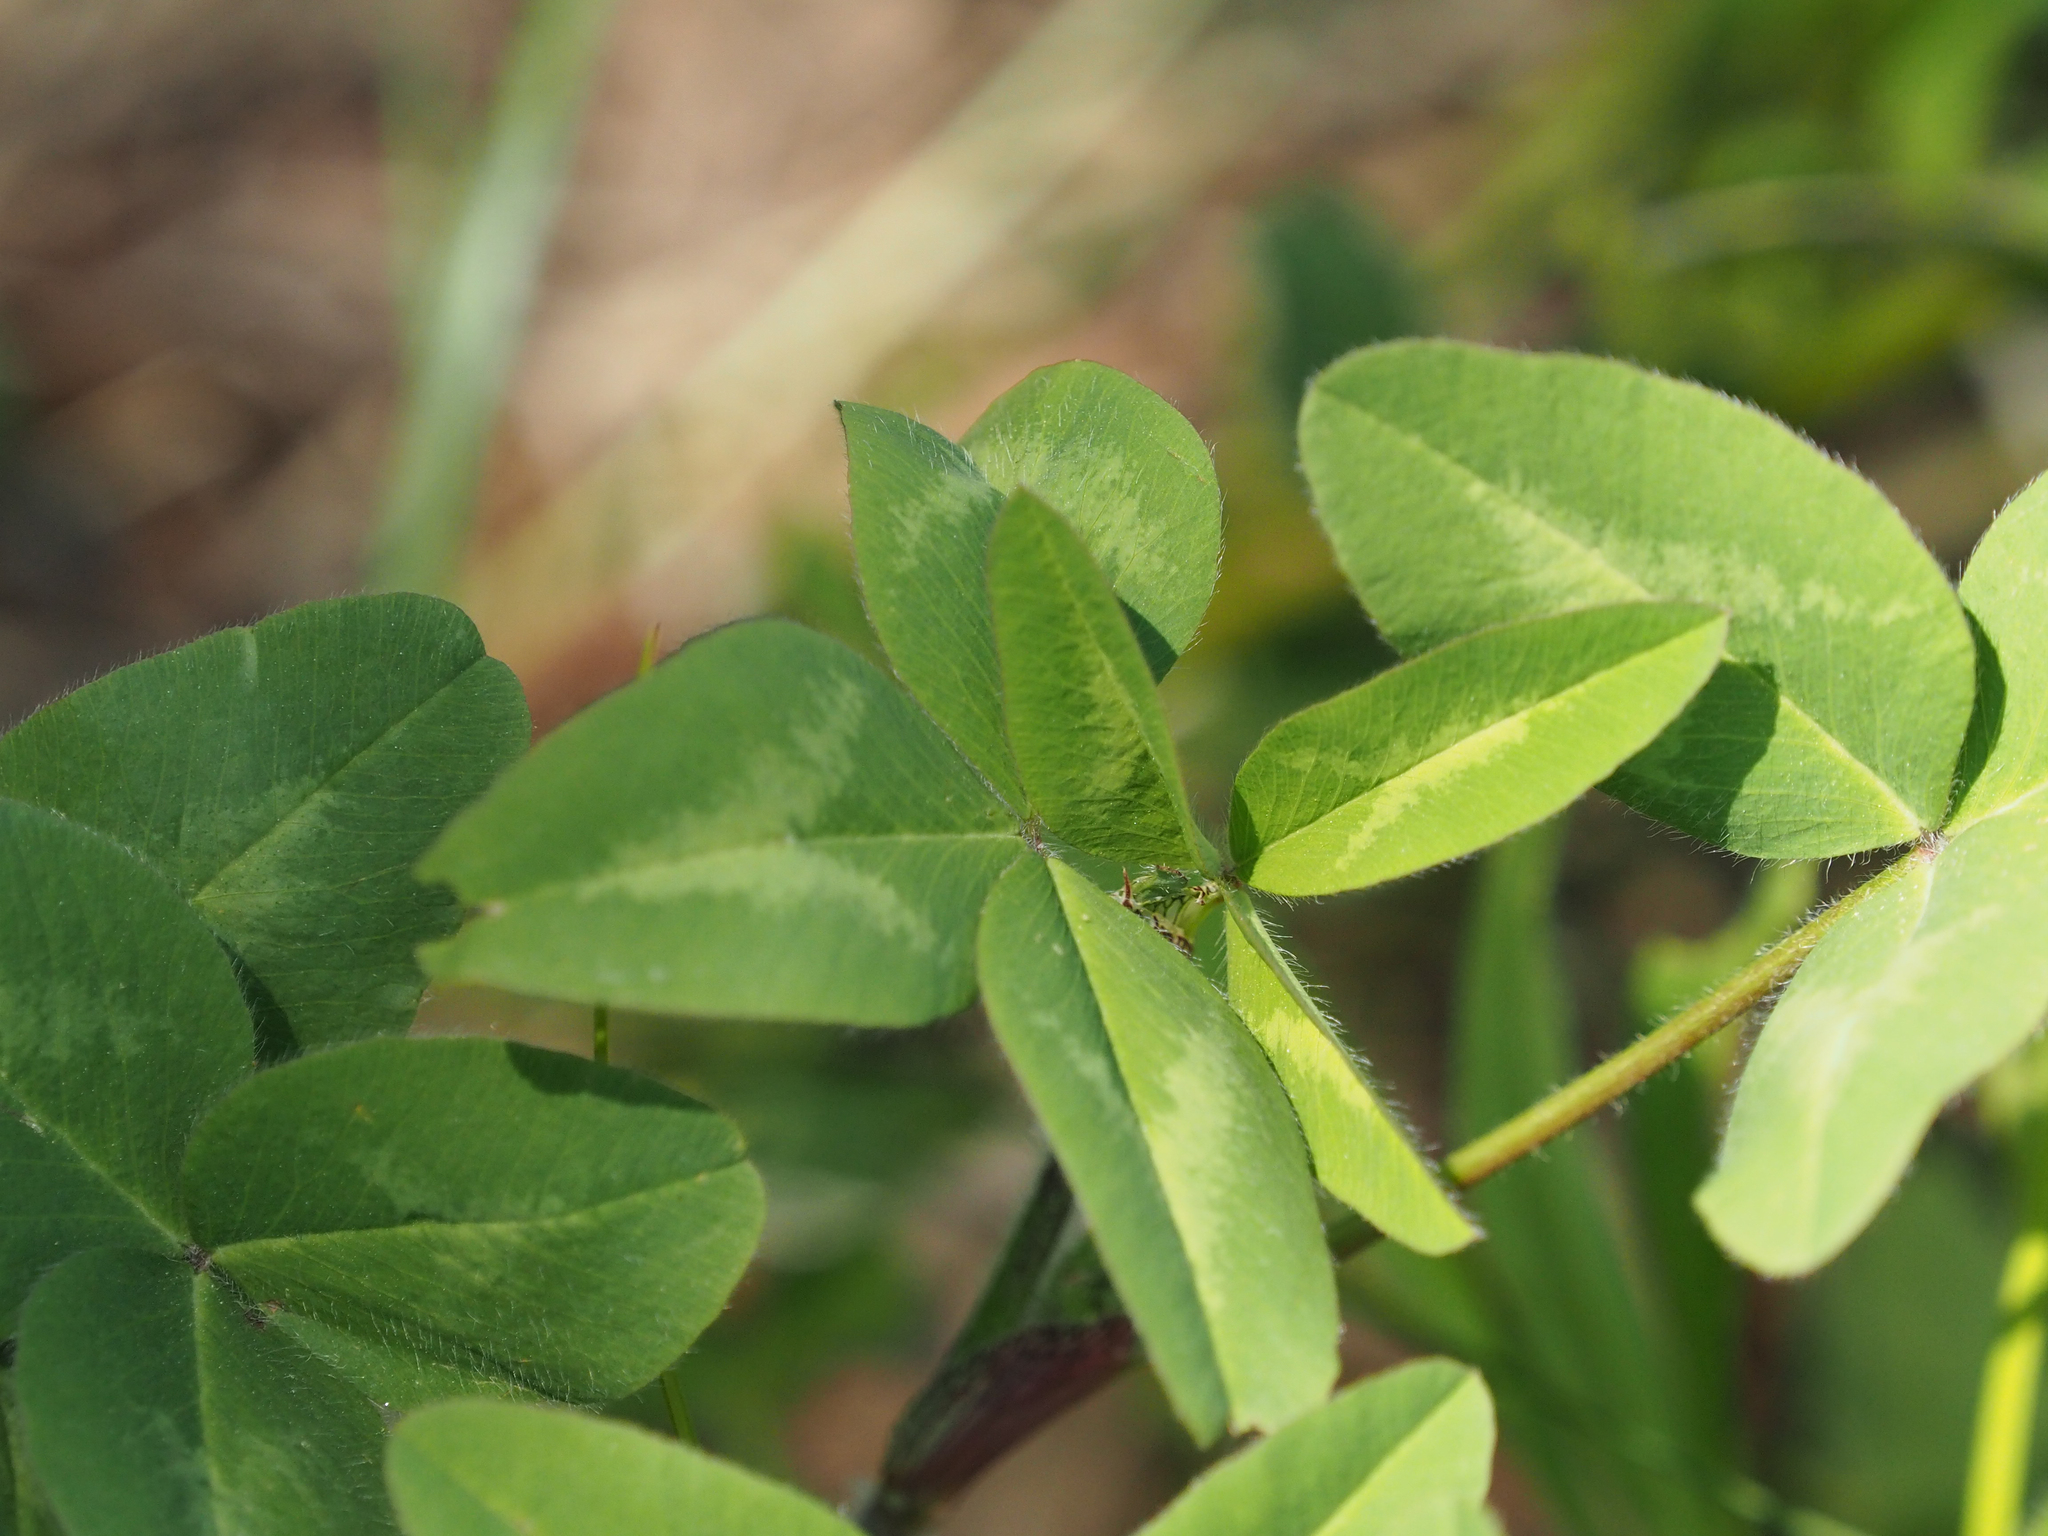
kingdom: Plantae
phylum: Tracheophyta
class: Magnoliopsida
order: Fabales
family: Fabaceae
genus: Trifolium
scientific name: Trifolium pratense
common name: Red clover
